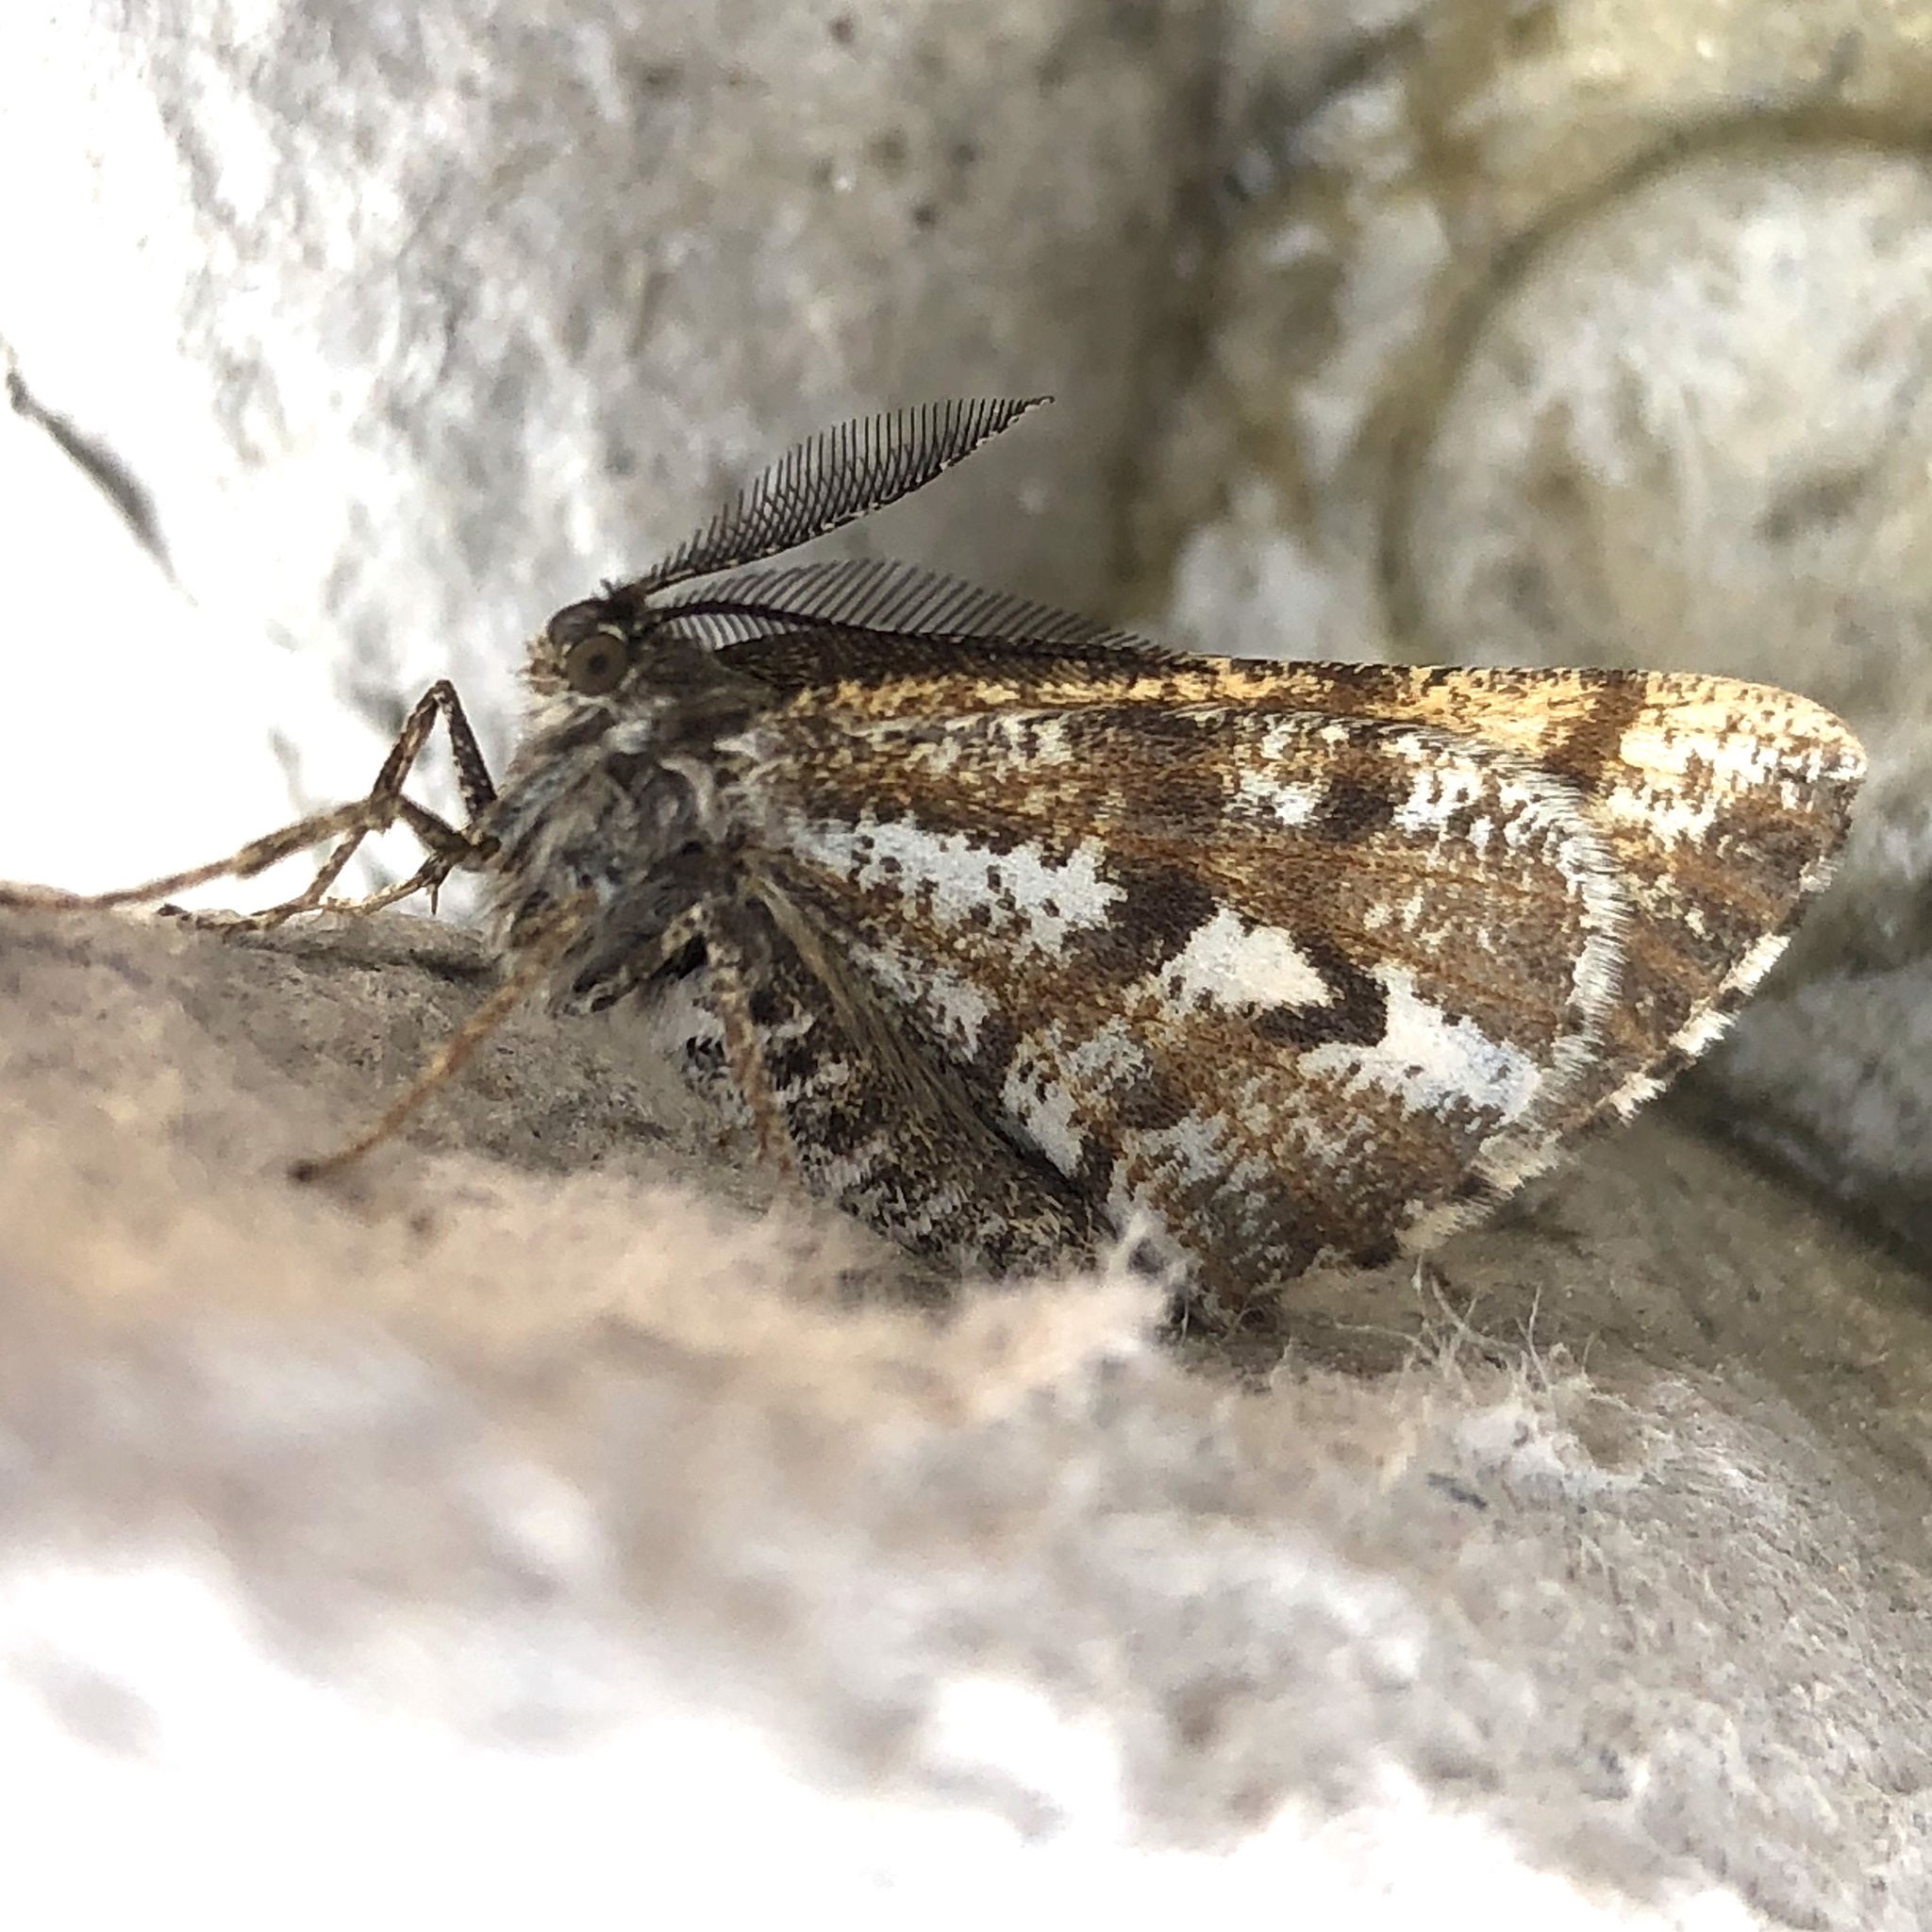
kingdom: Animalia
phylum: Arthropoda
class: Insecta
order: Lepidoptera
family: Geometridae
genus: Bupalus
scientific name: Bupalus piniaria
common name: Bordered white
